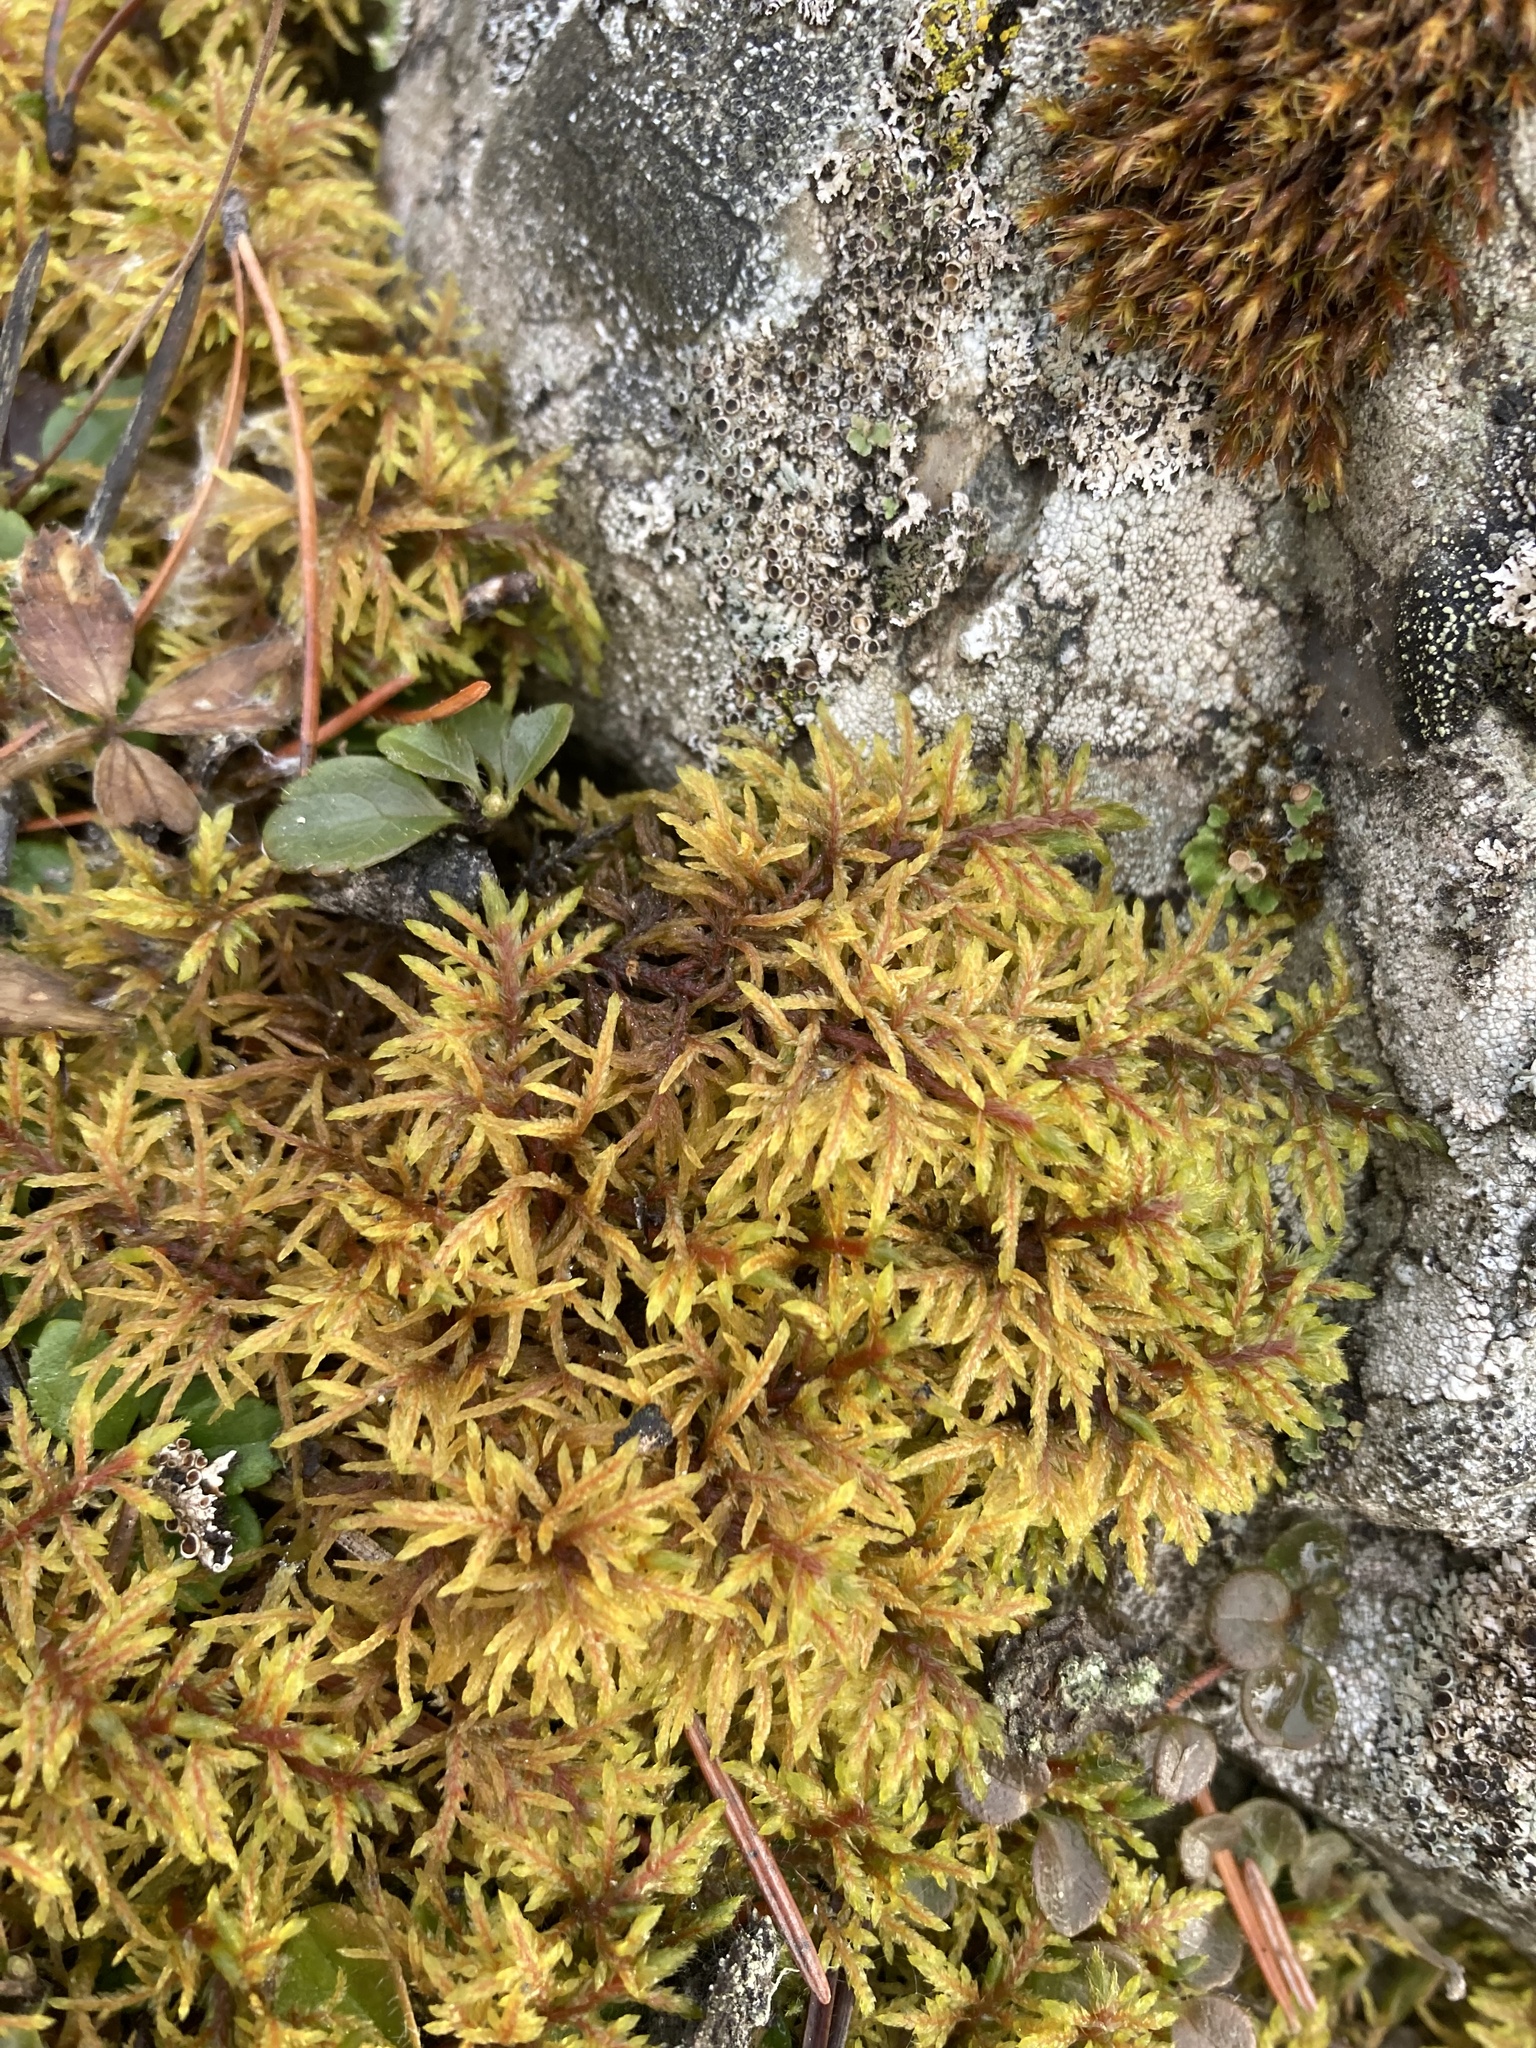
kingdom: Plantae
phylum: Bryophyta
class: Bryopsida
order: Hypnales
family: Hylocomiaceae
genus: Hylocomium
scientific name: Hylocomium splendens
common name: Stairstep moss
